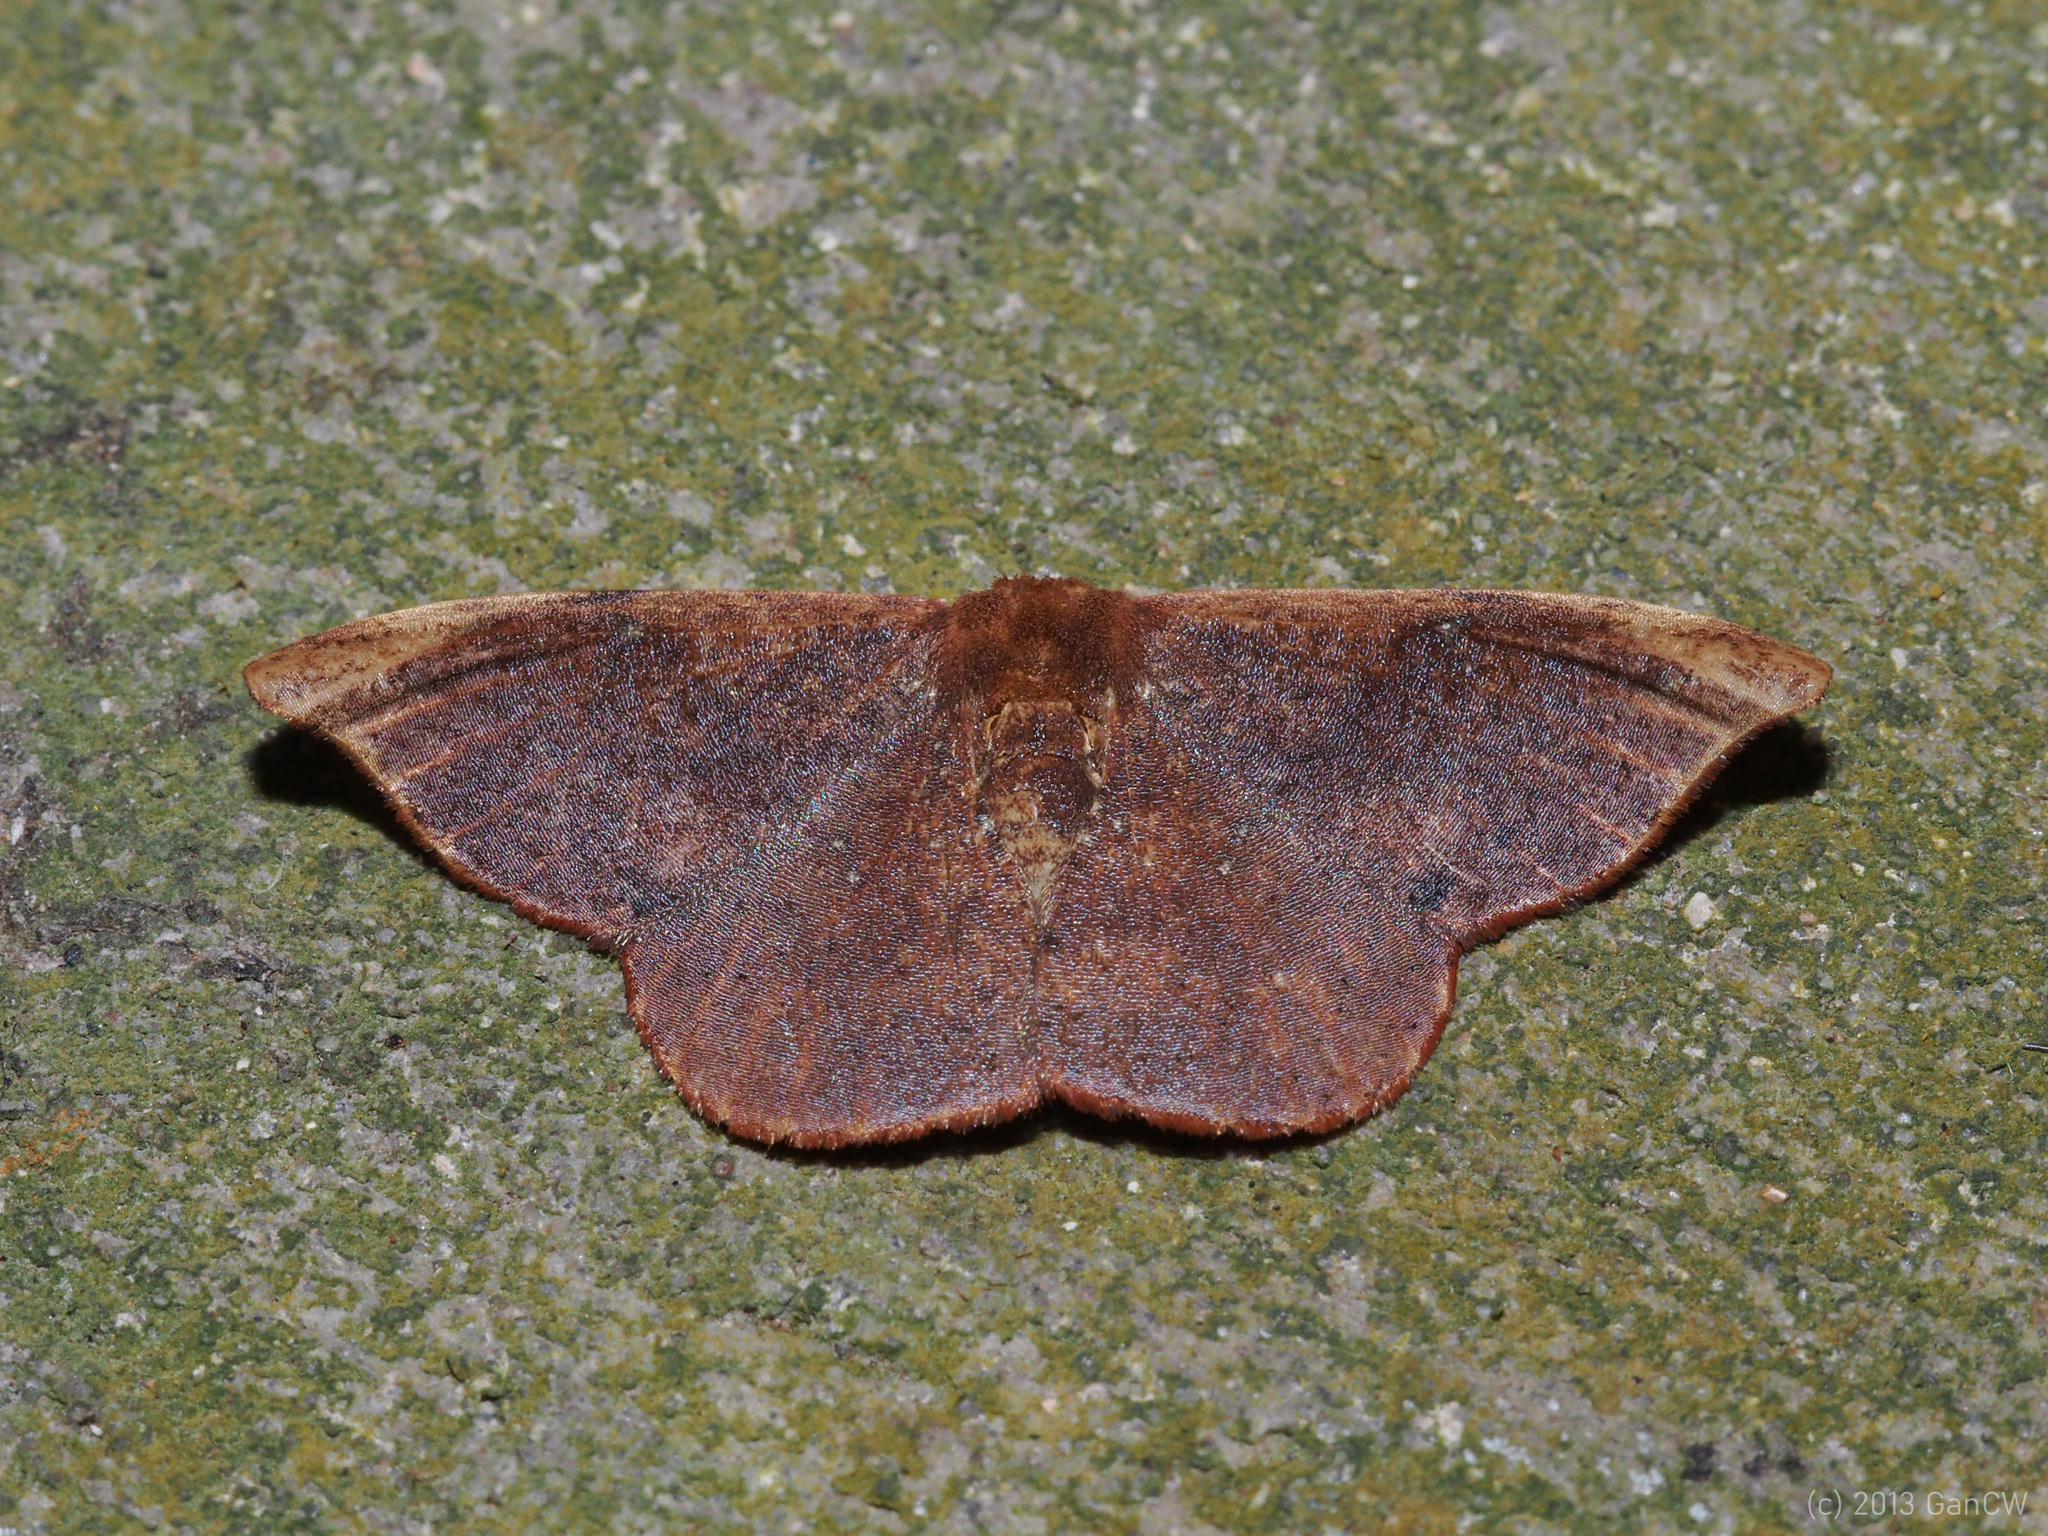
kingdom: Animalia
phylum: Arthropoda
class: Insecta
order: Lepidoptera
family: Drepanidae
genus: Oreta
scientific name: Oreta carnea
